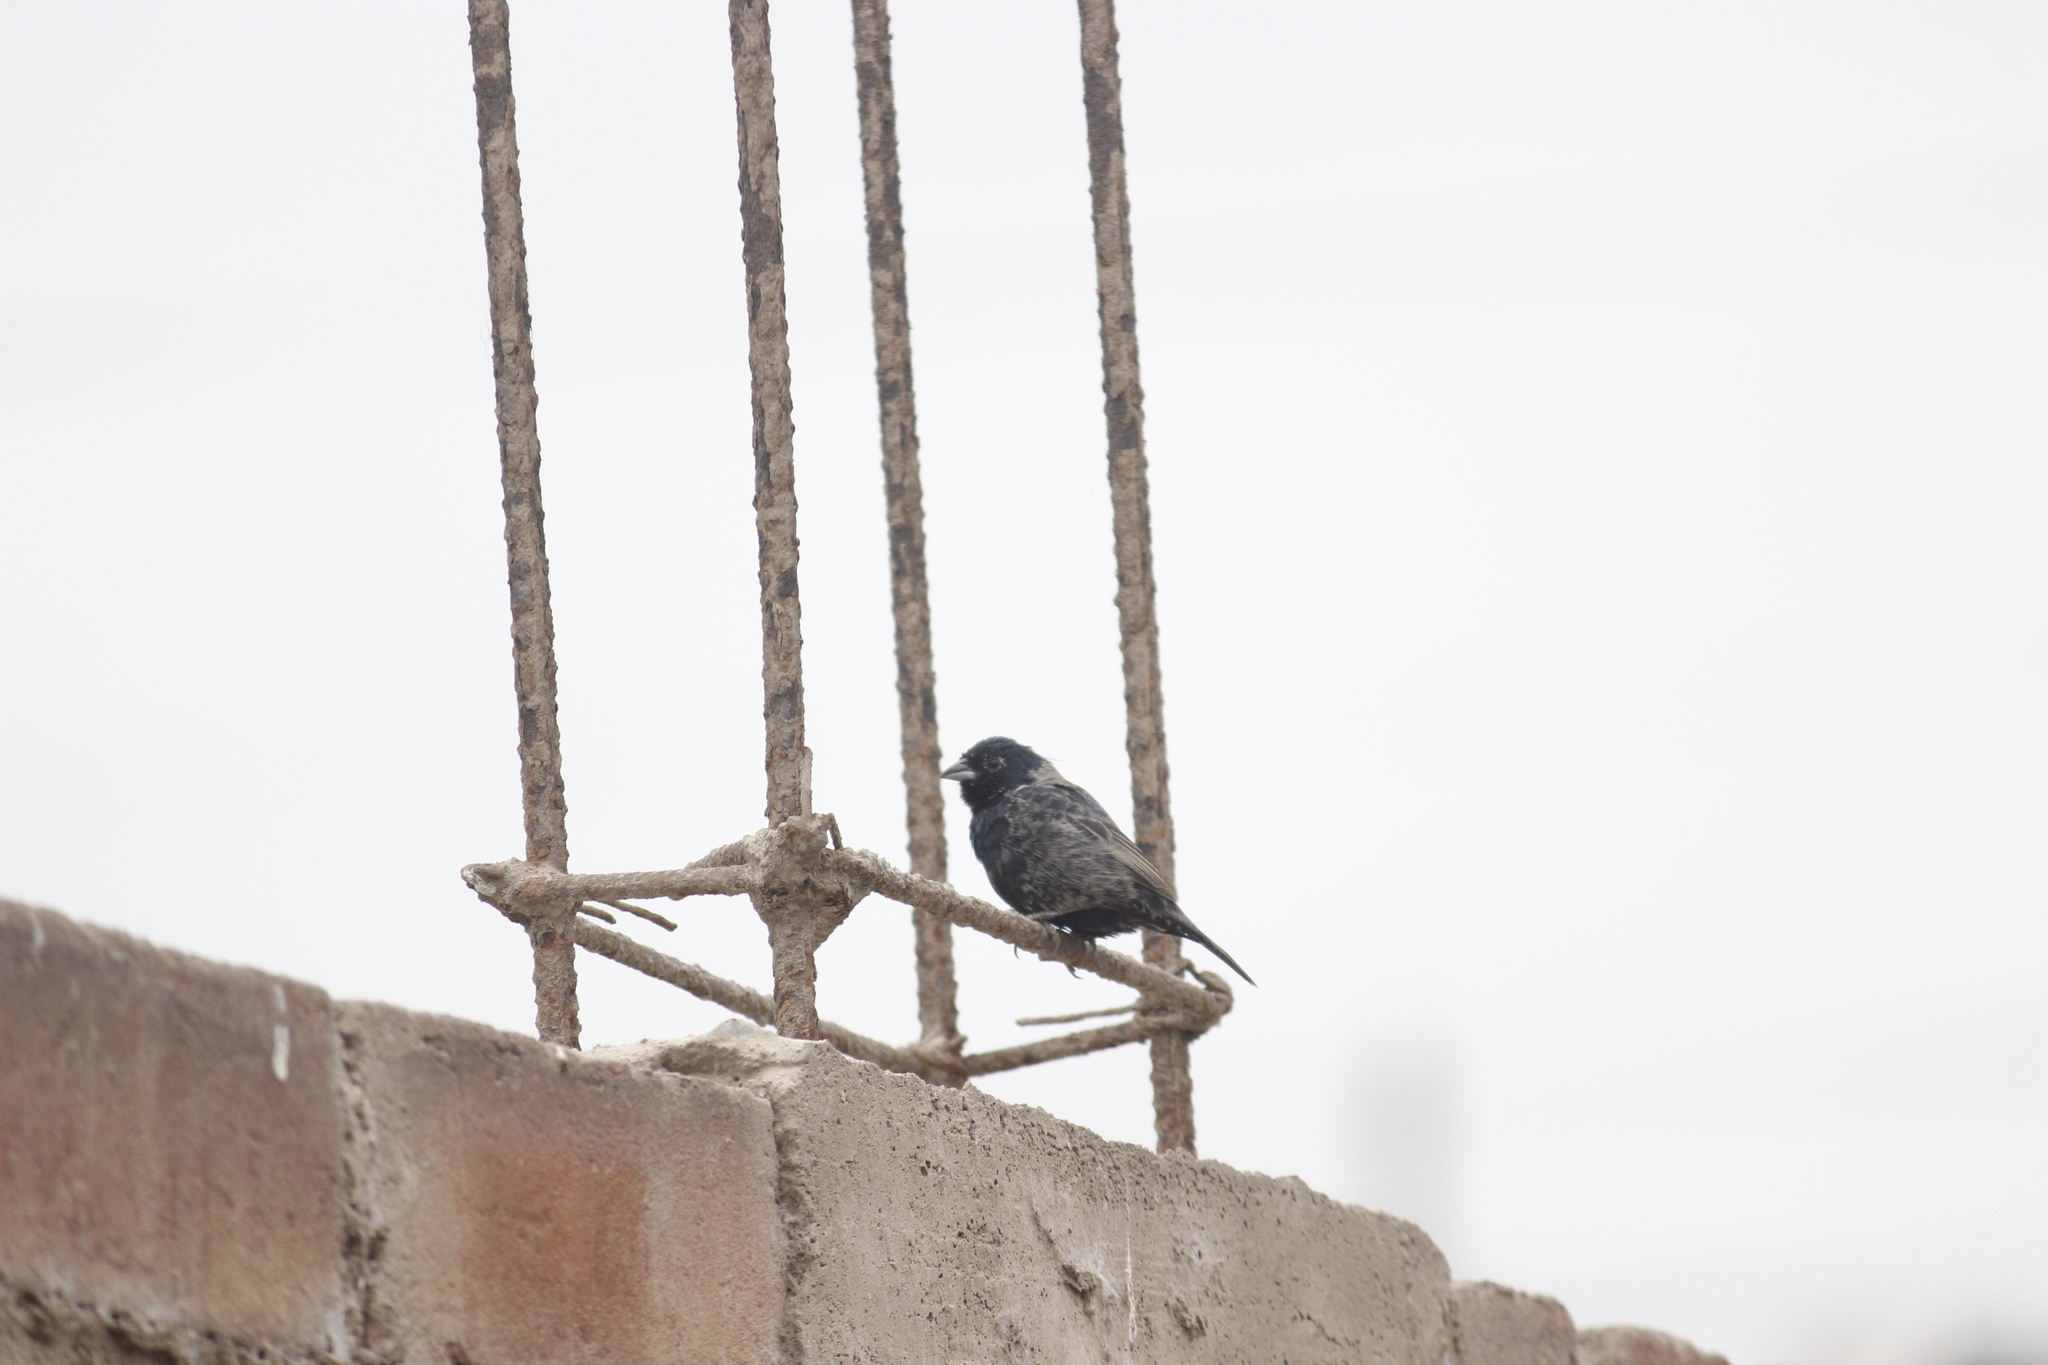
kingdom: Animalia
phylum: Chordata
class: Aves
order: Passeriformes
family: Thraupidae
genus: Volatinia
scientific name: Volatinia jacarina
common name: Blue-black grassquit
